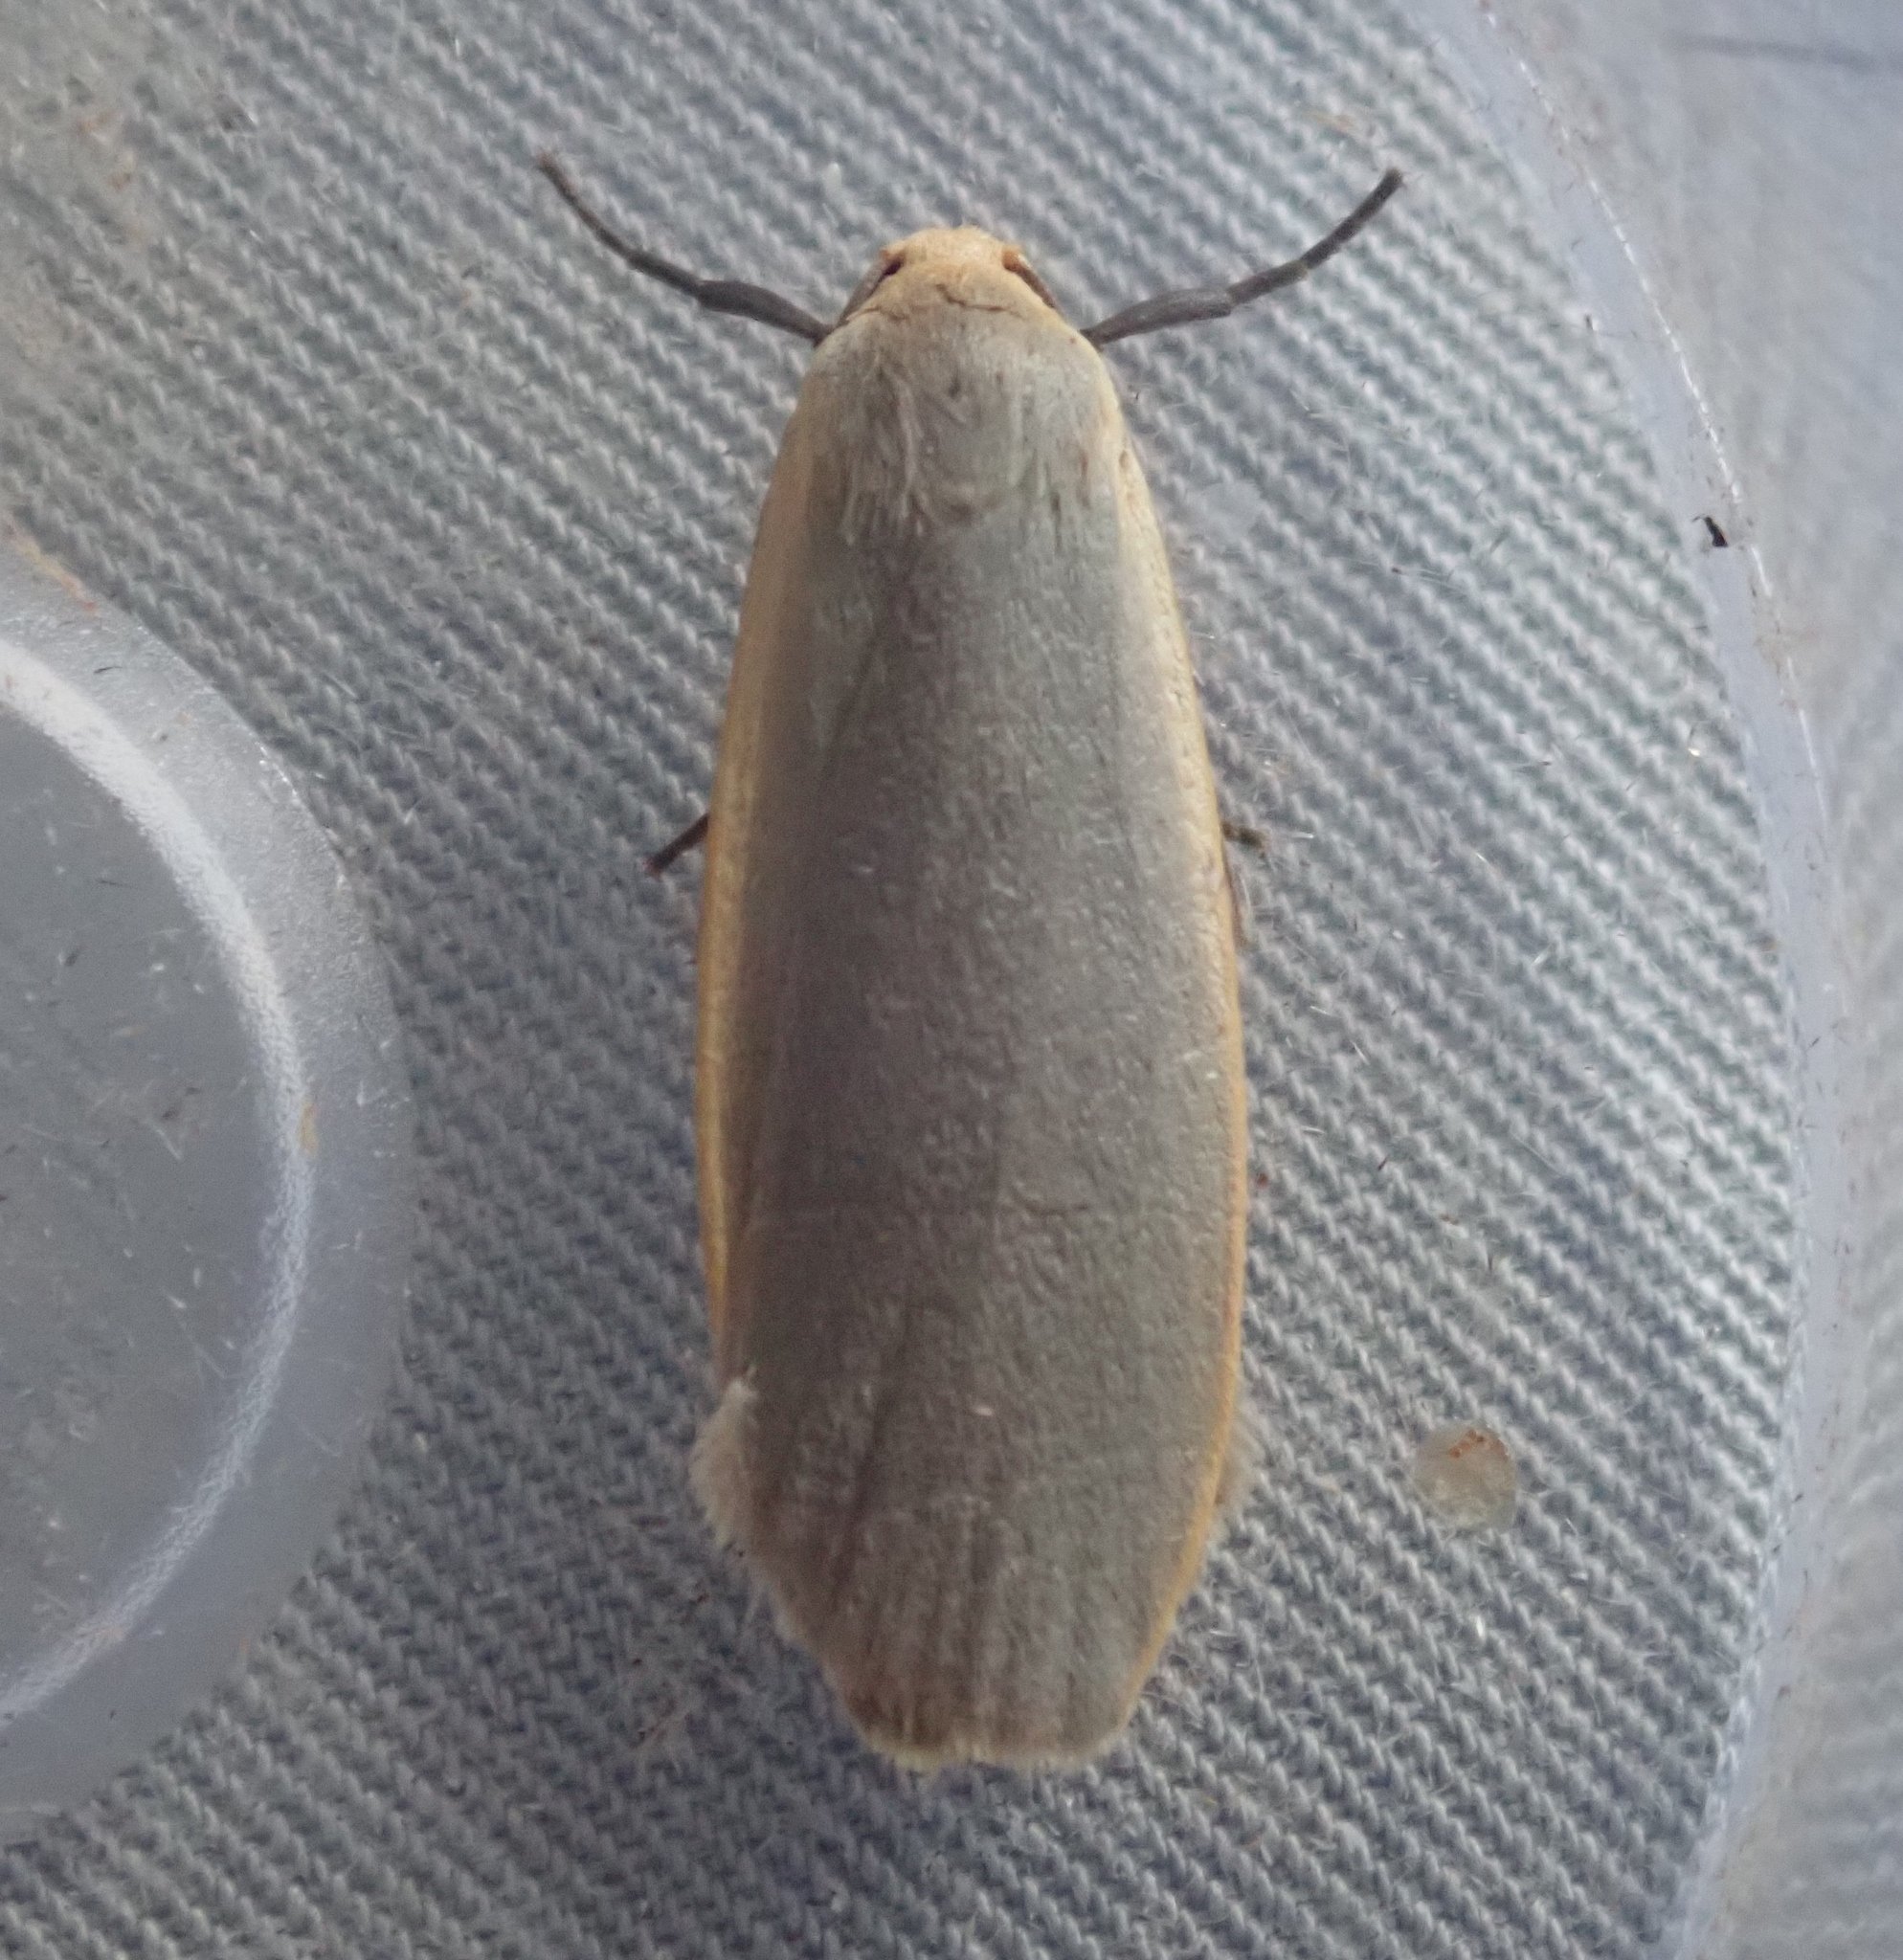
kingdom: Animalia
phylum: Arthropoda
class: Insecta
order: Lepidoptera
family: Erebidae
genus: Collita
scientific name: Collita griseola
